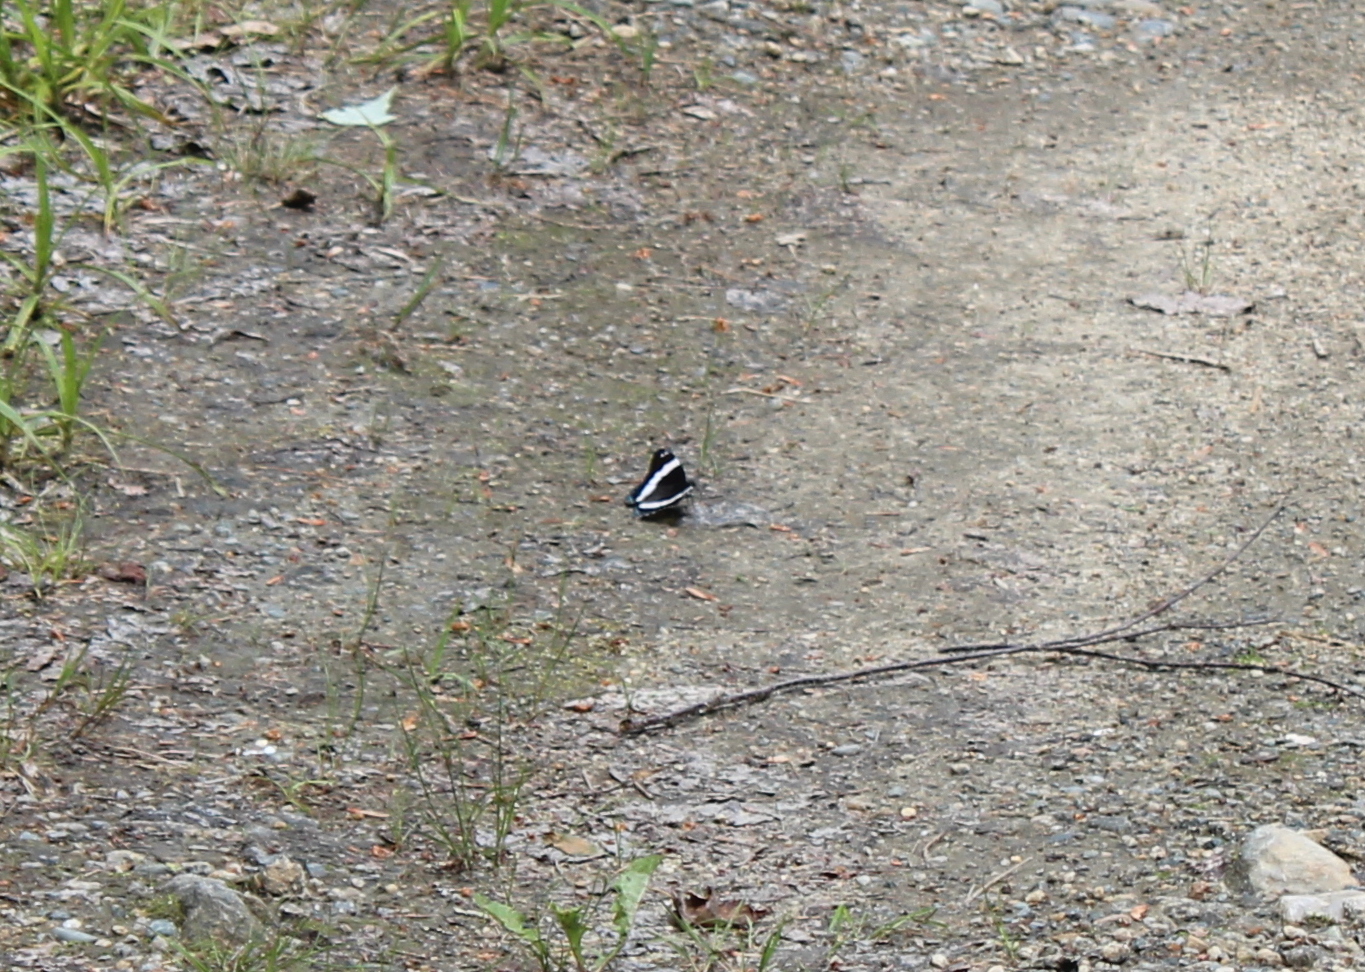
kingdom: Animalia
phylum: Arthropoda
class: Insecta
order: Lepidoptera
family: Nymphalidae
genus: Limenitis
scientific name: Limenitis arthemis
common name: Red-spotted admiral
